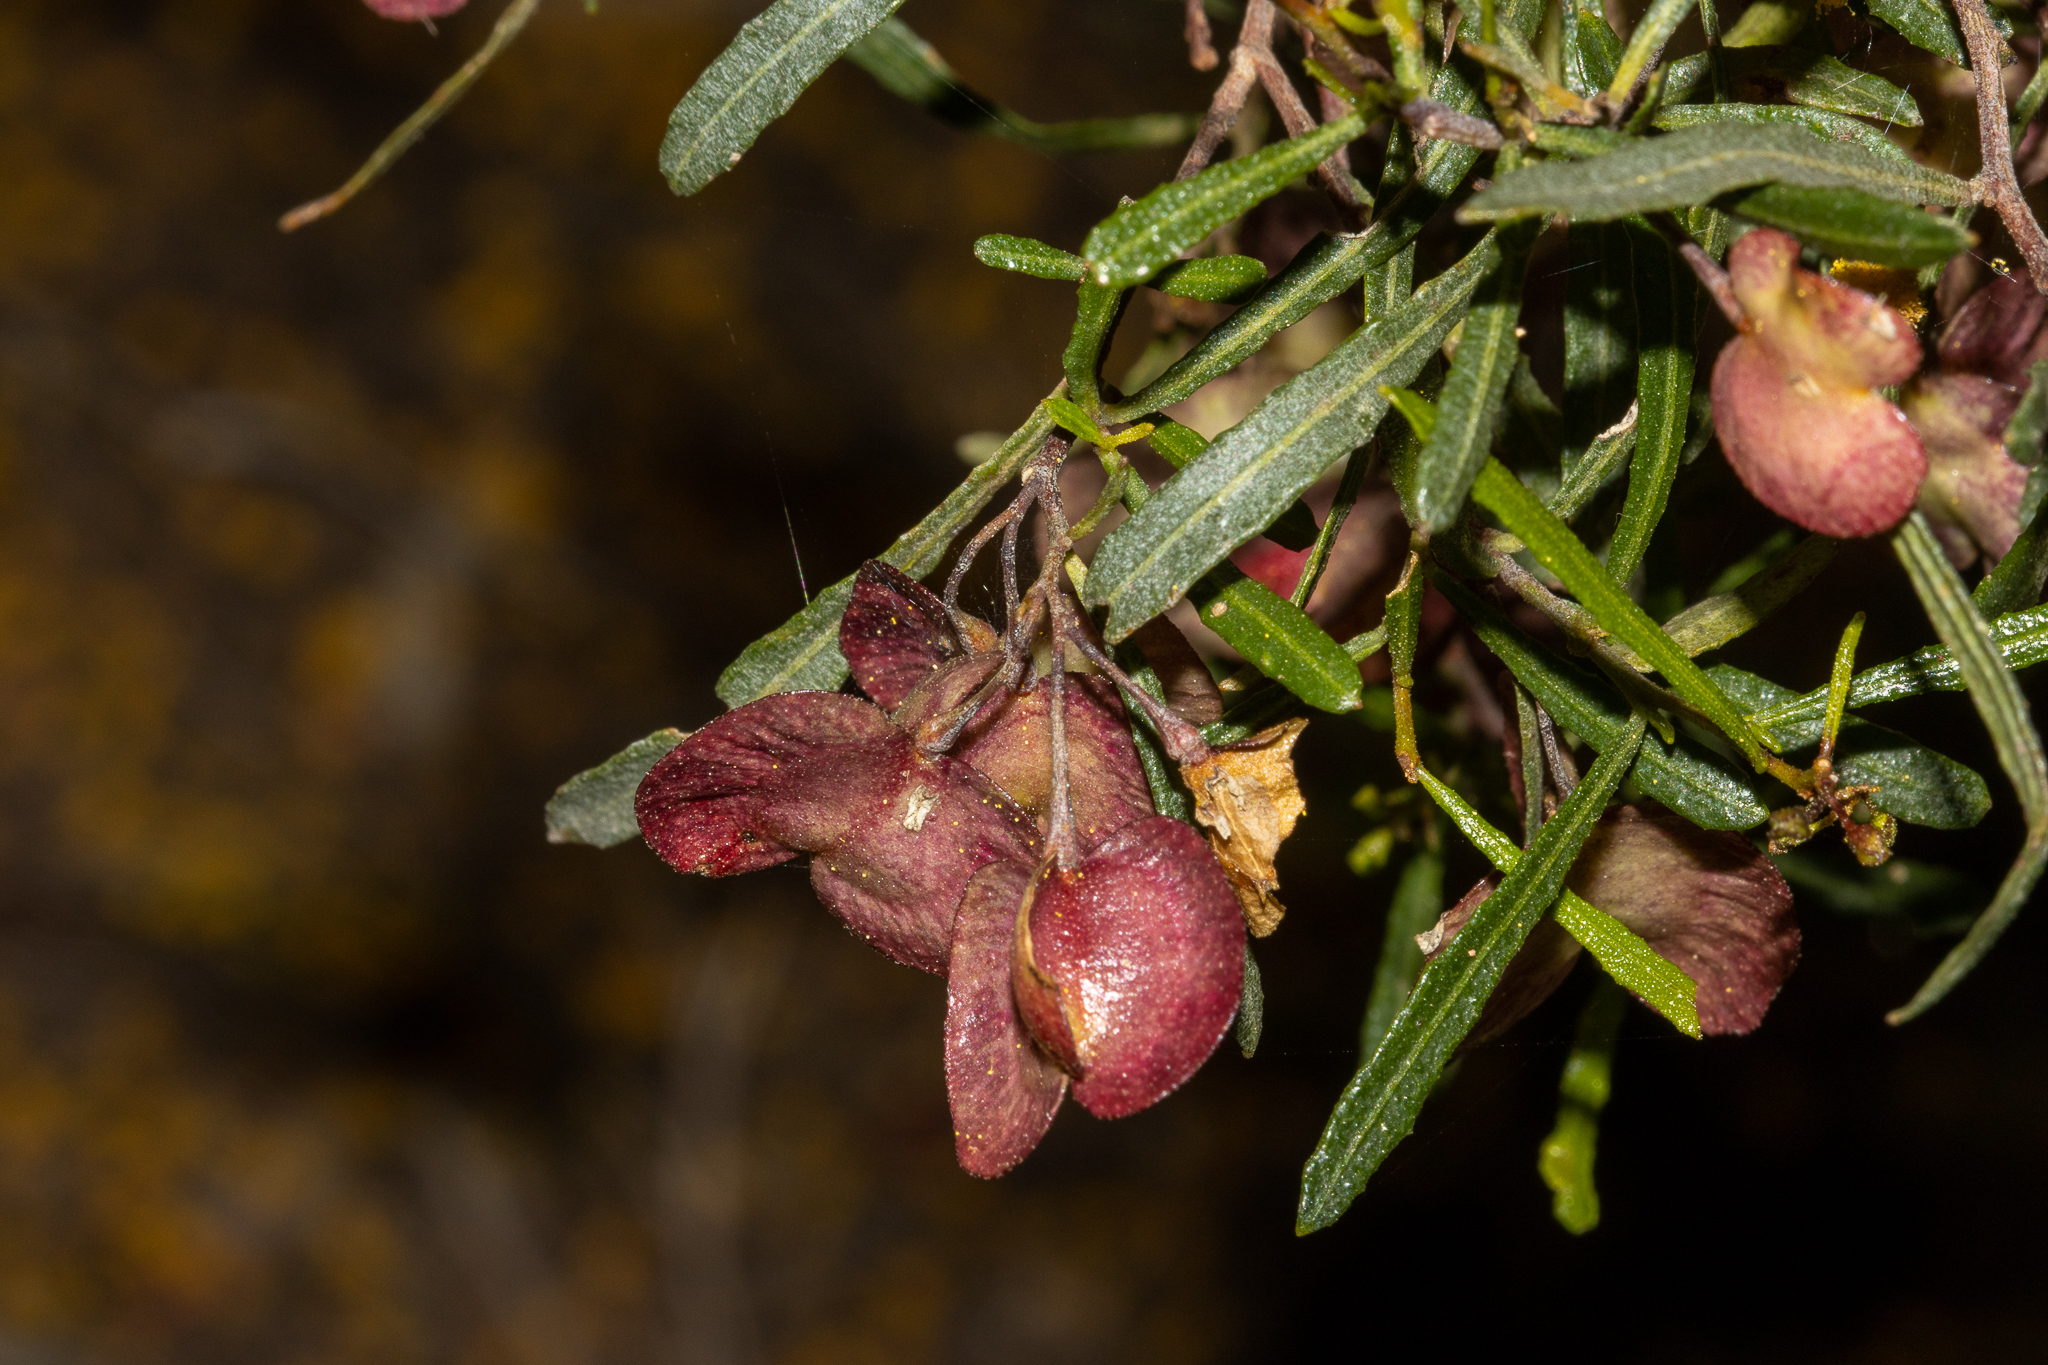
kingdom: Plantae
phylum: Tracheophyta
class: Magnoliopsida
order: Sapindales
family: Sapindaceae
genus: Dodonaea
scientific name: Dodonaea viscosa
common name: Hopbush
